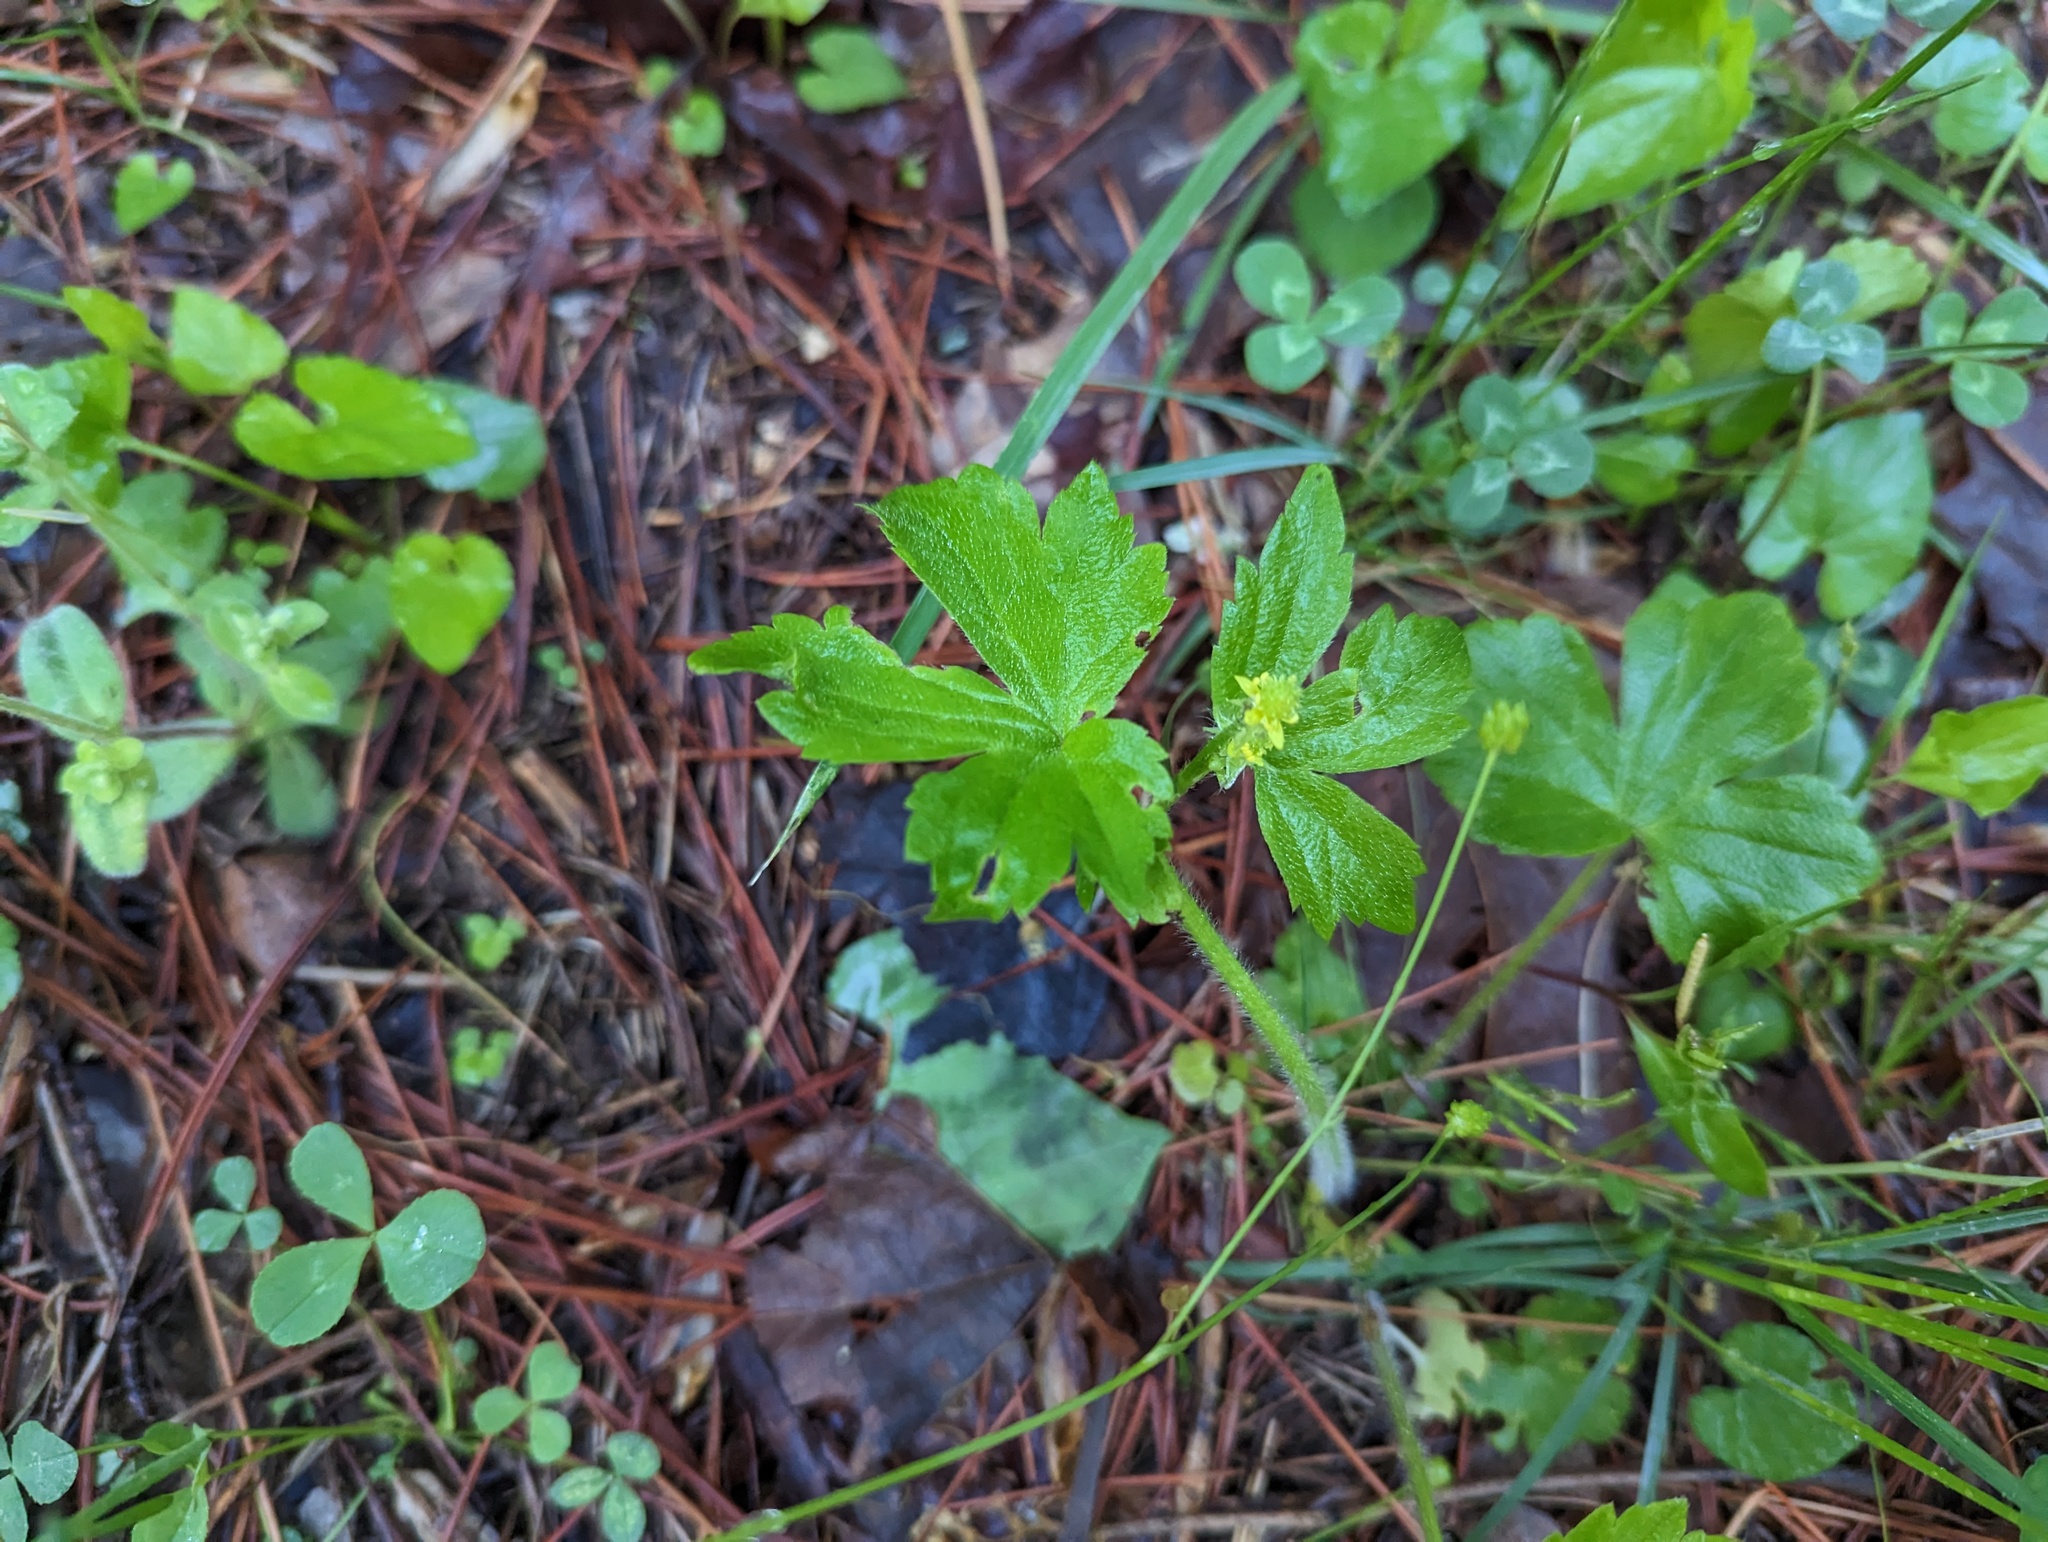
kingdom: Plantae
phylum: Tracheophyta
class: Magnoliopsida
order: Ranunculales
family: Ranunculaceae
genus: Ranunculus
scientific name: Ranunculus recurvatus
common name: Blisterwort
